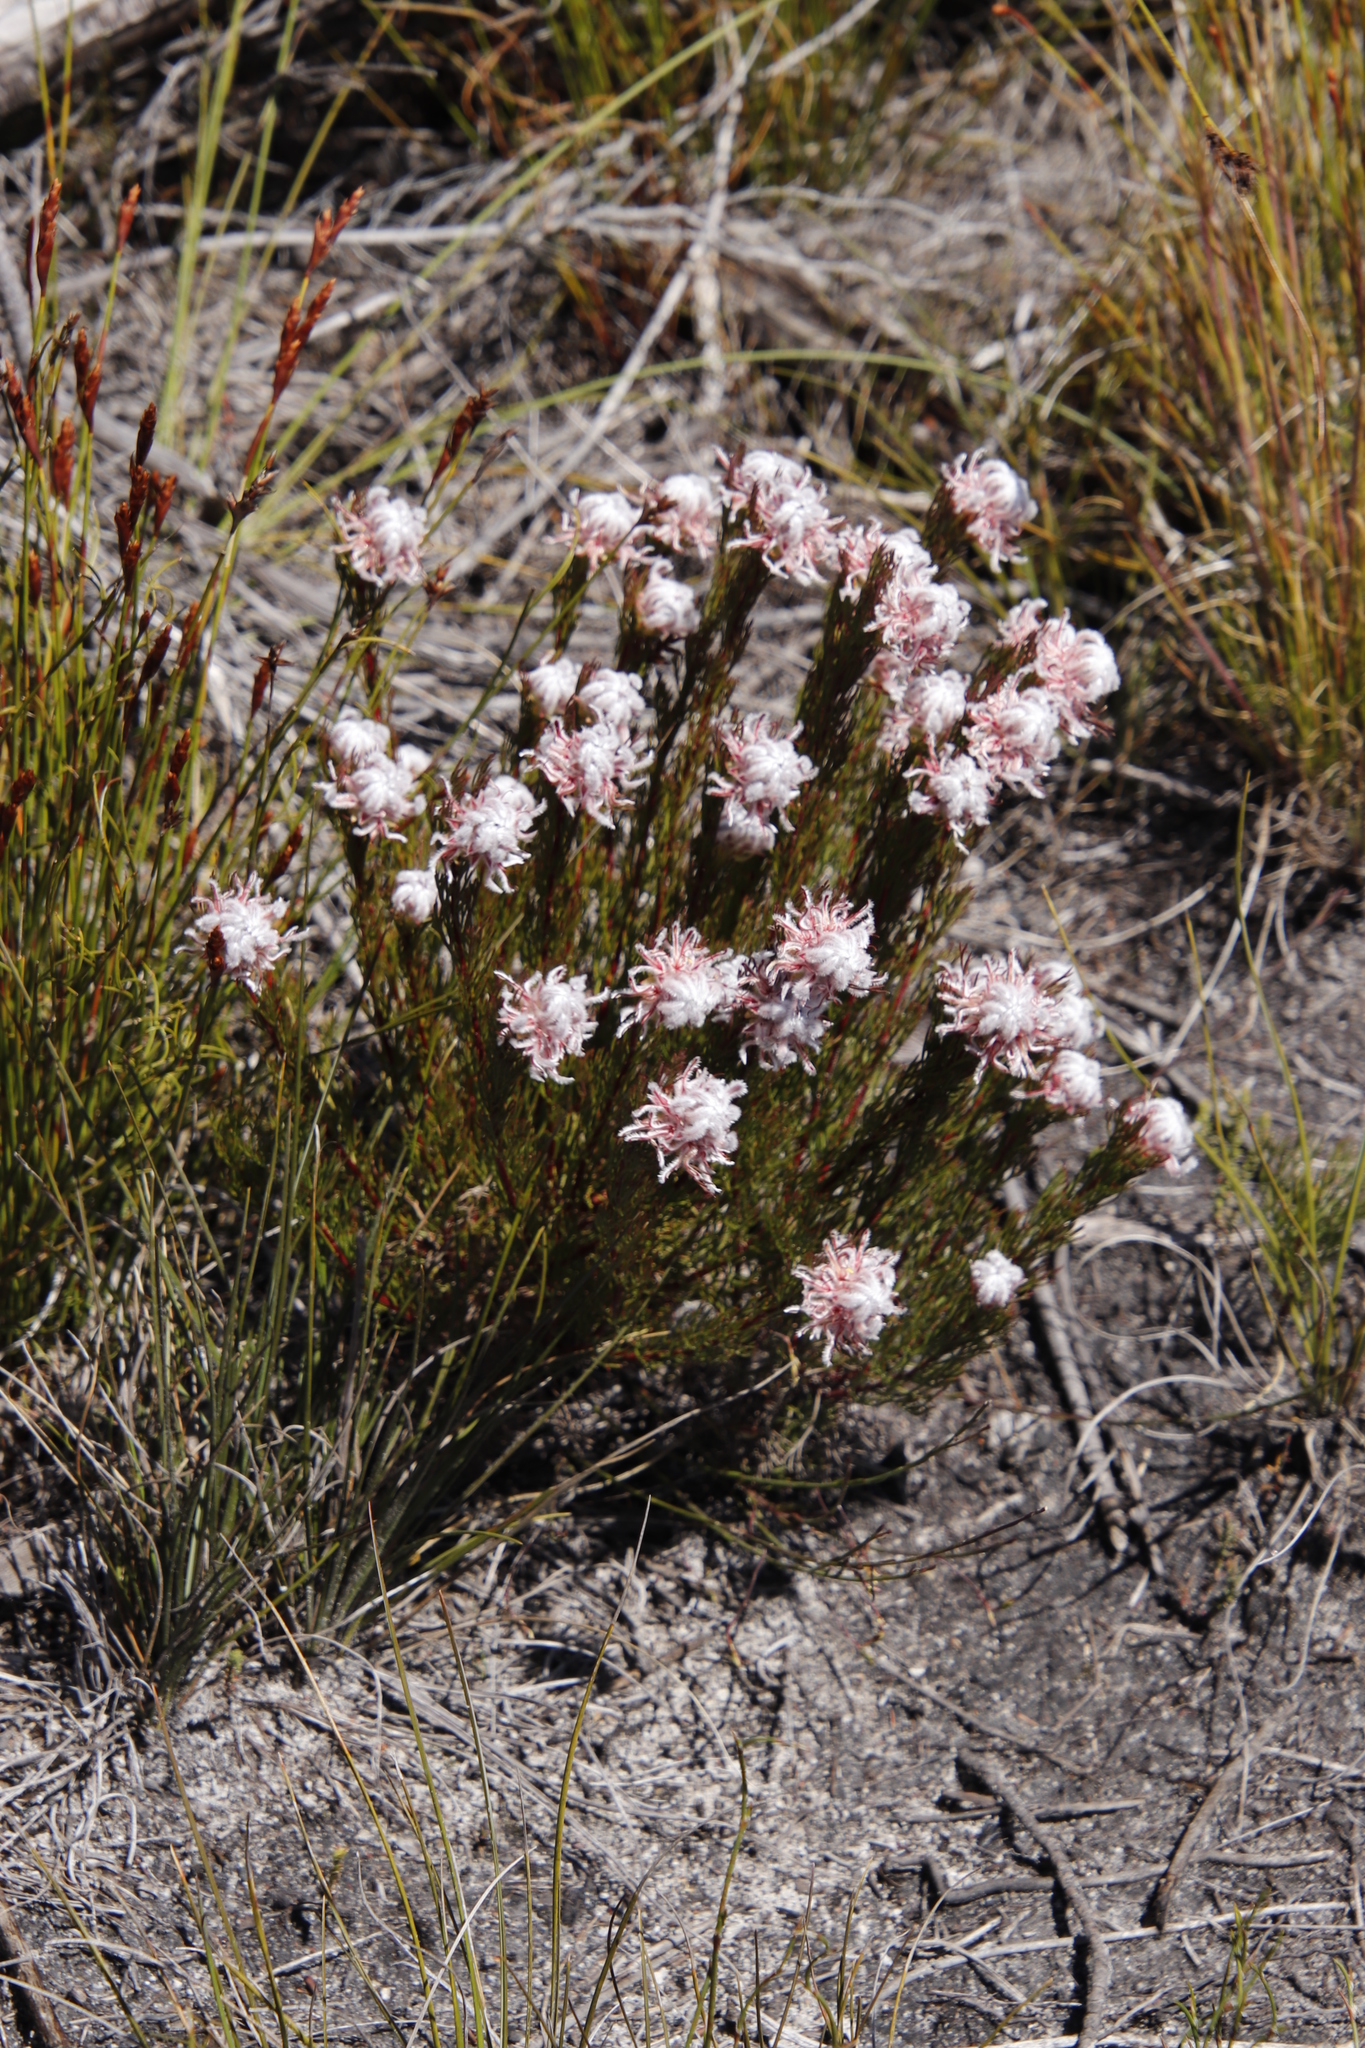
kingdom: Plantae
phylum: Tracheophyta
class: Magnoliopsida
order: Proteales
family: Proteaceae
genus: Serruria
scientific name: Serruria rostellaris
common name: Remote spiderhead
